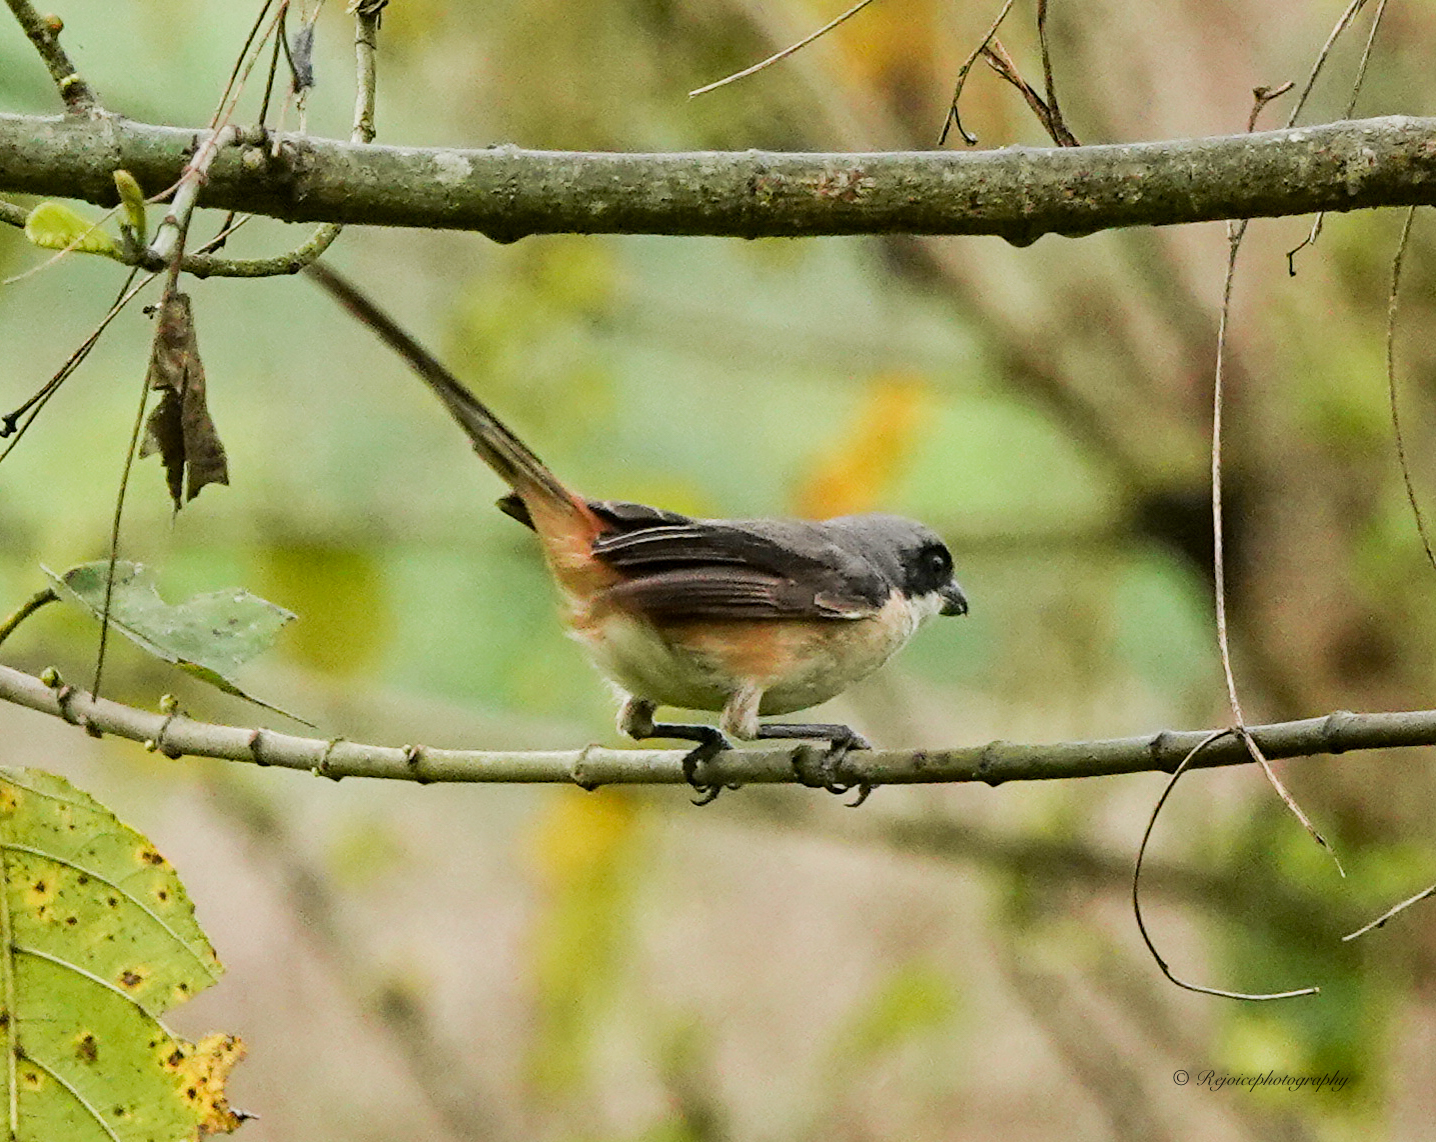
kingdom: Animalia
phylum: Chordata
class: Aves
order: Passeriformes
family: Laniidae
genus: Lanius
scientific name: Lanius schach
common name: Long-tailed shrike
